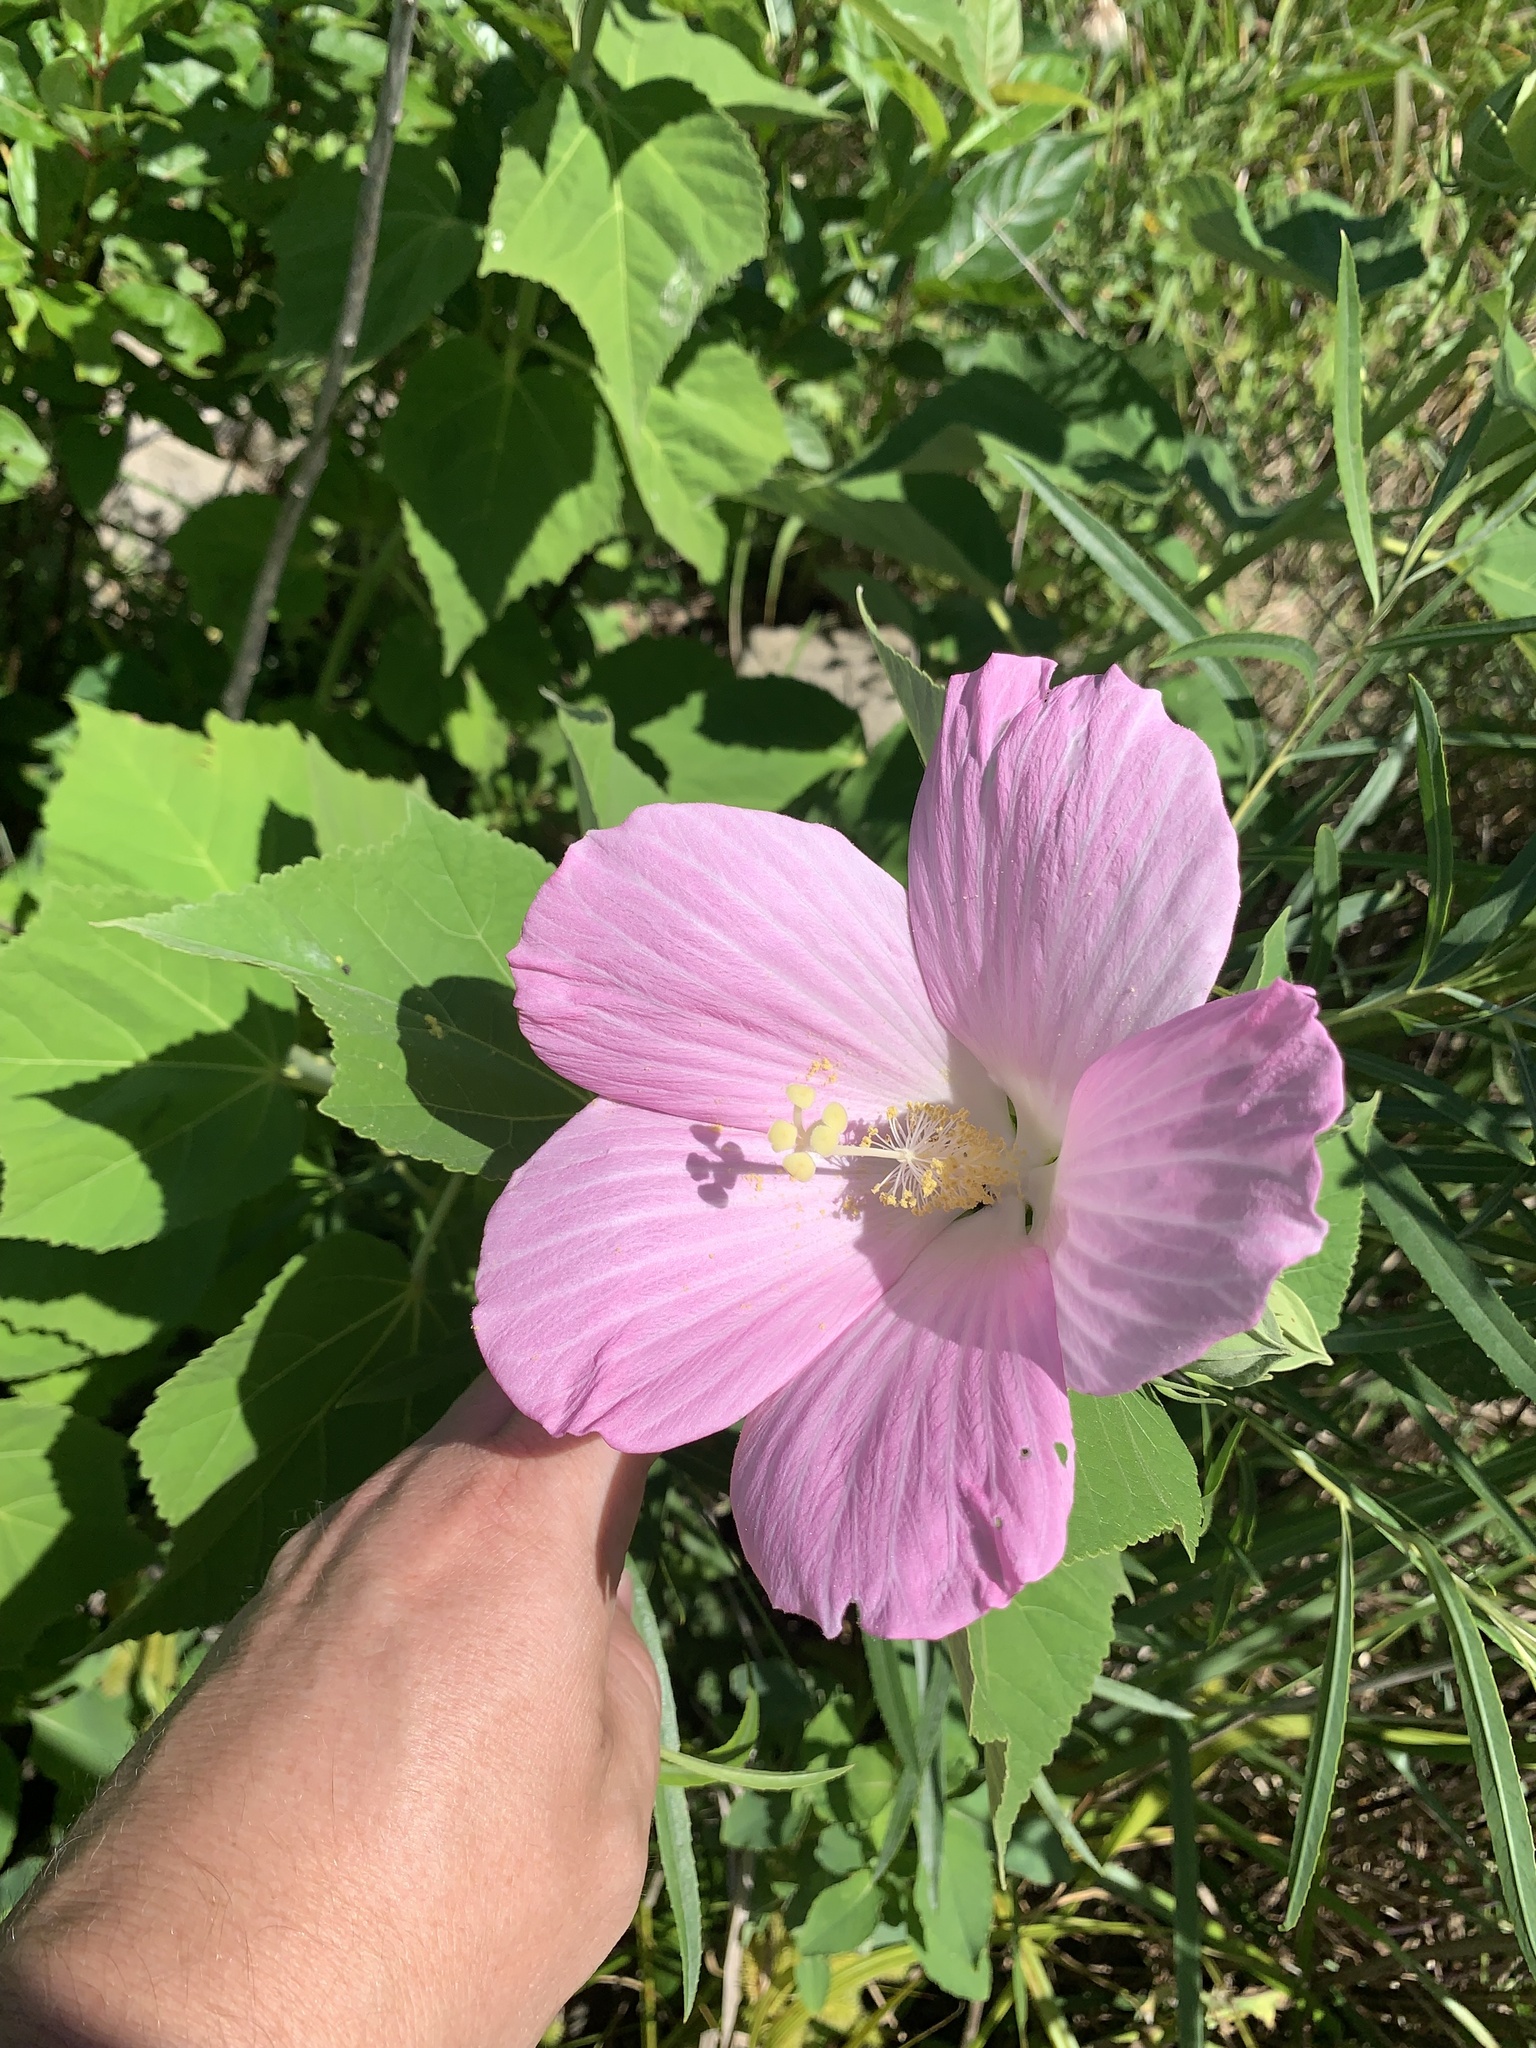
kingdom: Plantae
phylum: Tracheophyta
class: Magnoliopsida
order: Malvales
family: Malvaceae
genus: Hibiscus
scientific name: Hibiscus moscheutos
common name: Common rose-mallow
